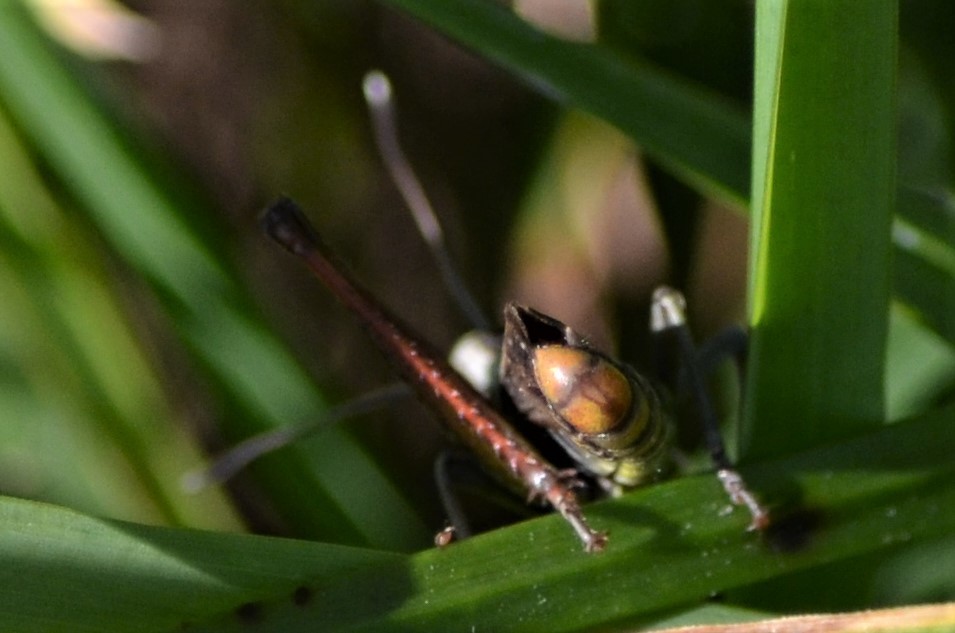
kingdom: Animalia
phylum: Arthropoda
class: Insecta
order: Orthoptera
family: Acrididae
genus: Gomphocerippus
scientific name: Gomphocerippus rufus
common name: Rufous grasshopper
